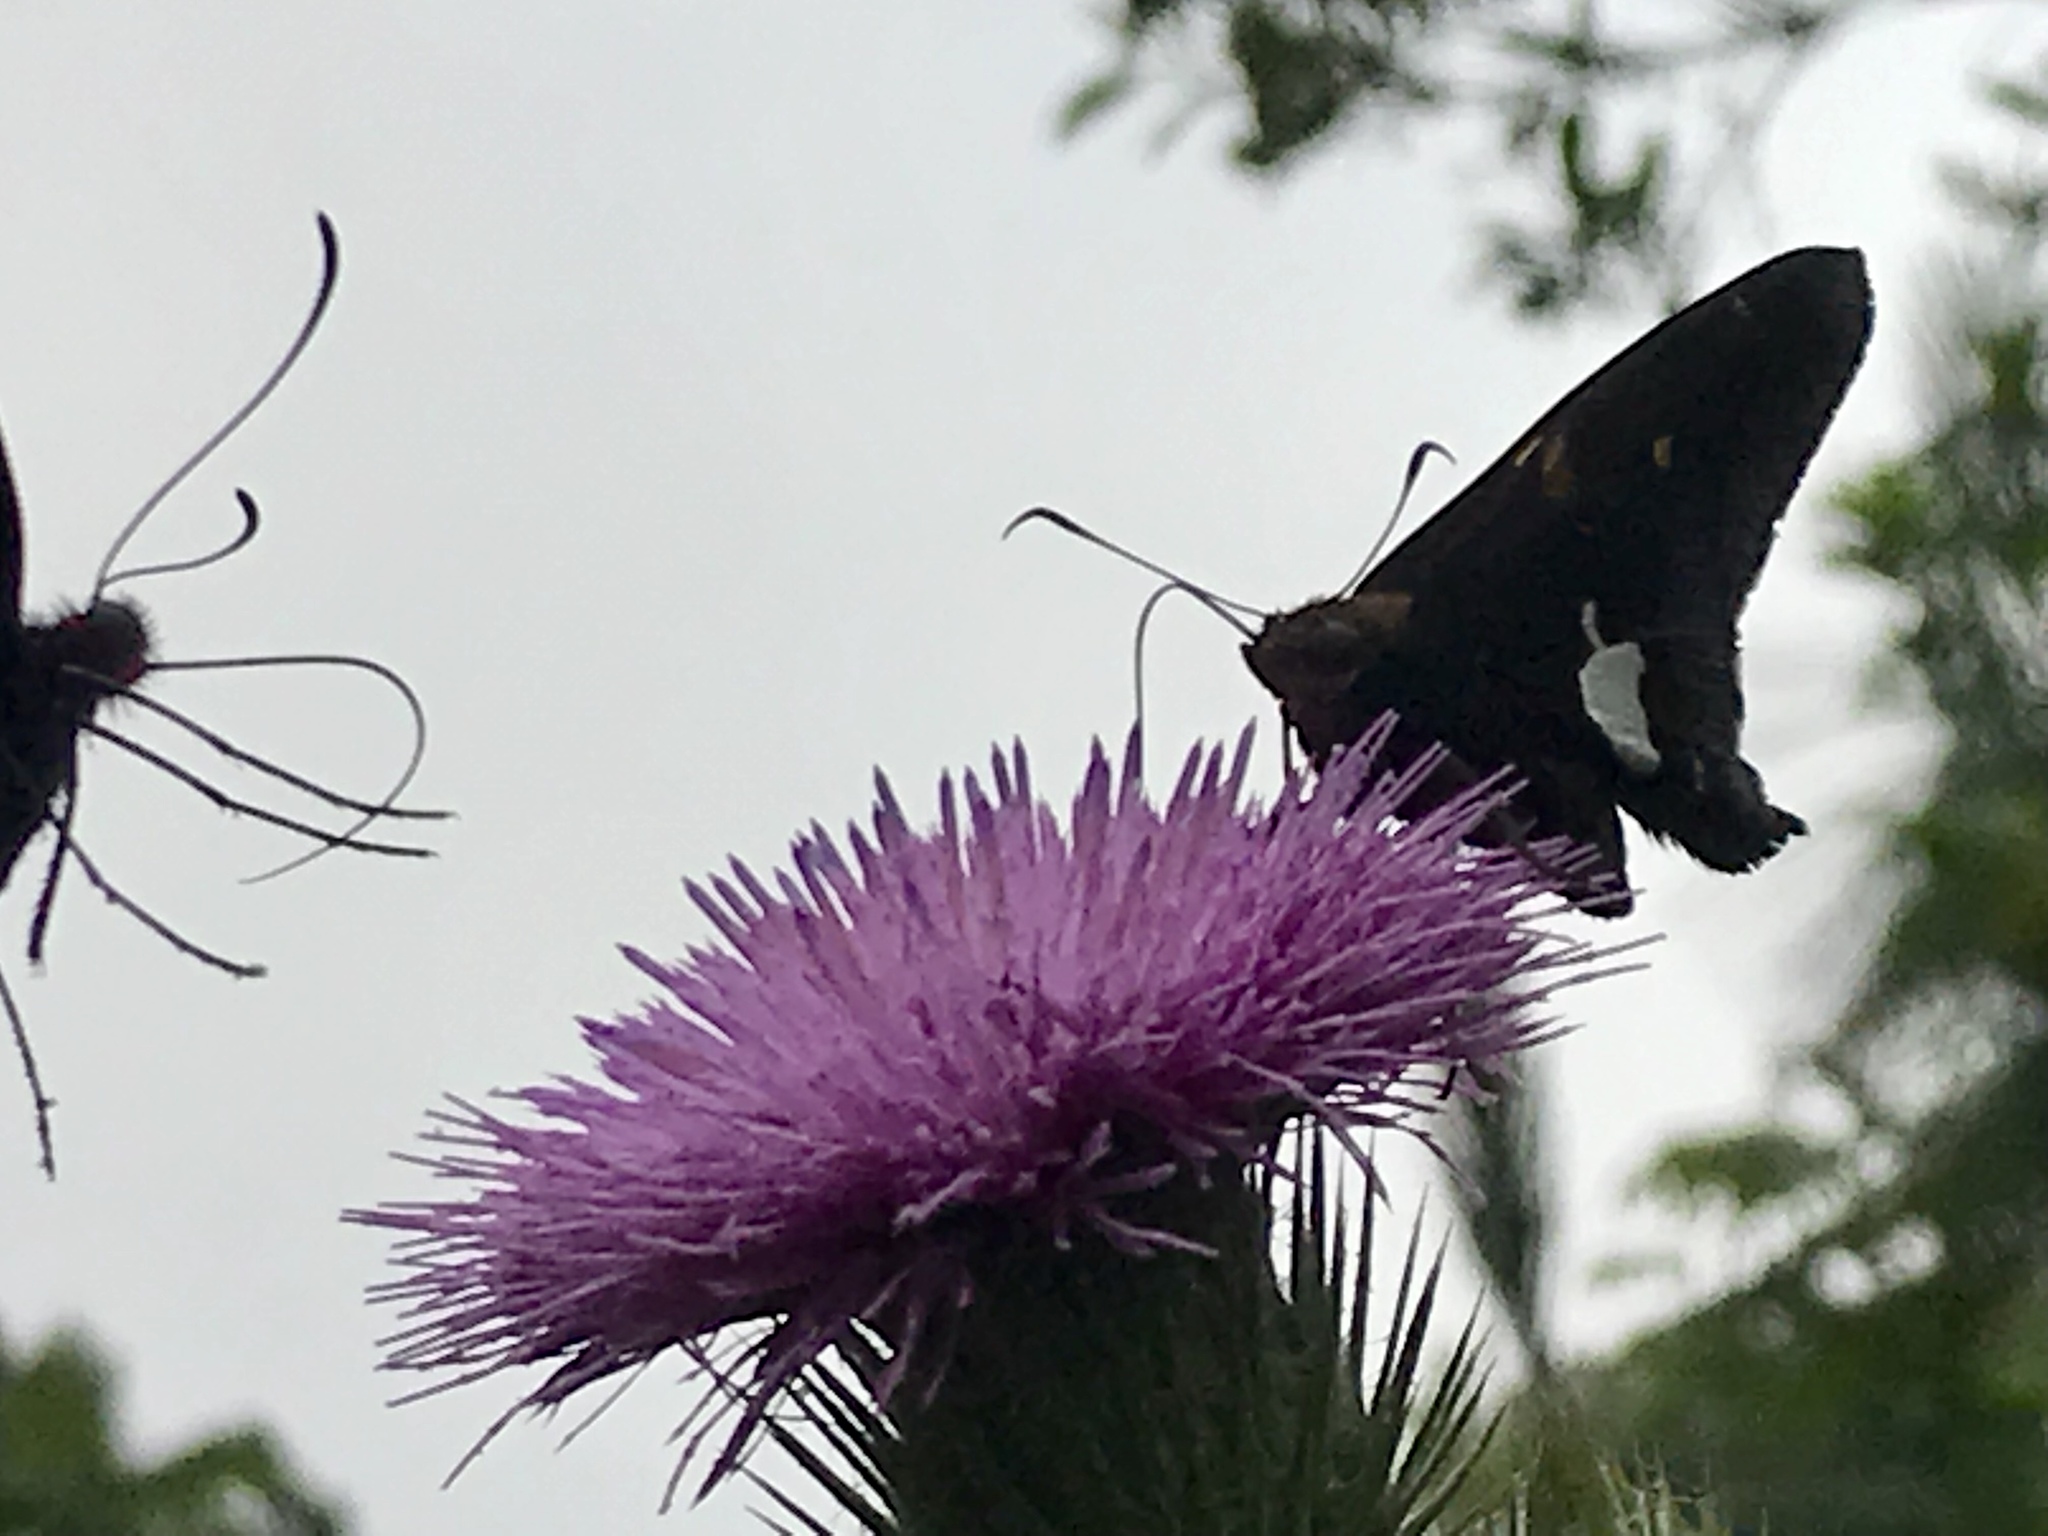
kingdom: Animalia
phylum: Arthropoda
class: Insecta
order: Lepidoptera
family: Hesperiidae
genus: Epargyreus
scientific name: Epargyreus clarus
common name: Silver-spotted skipper
